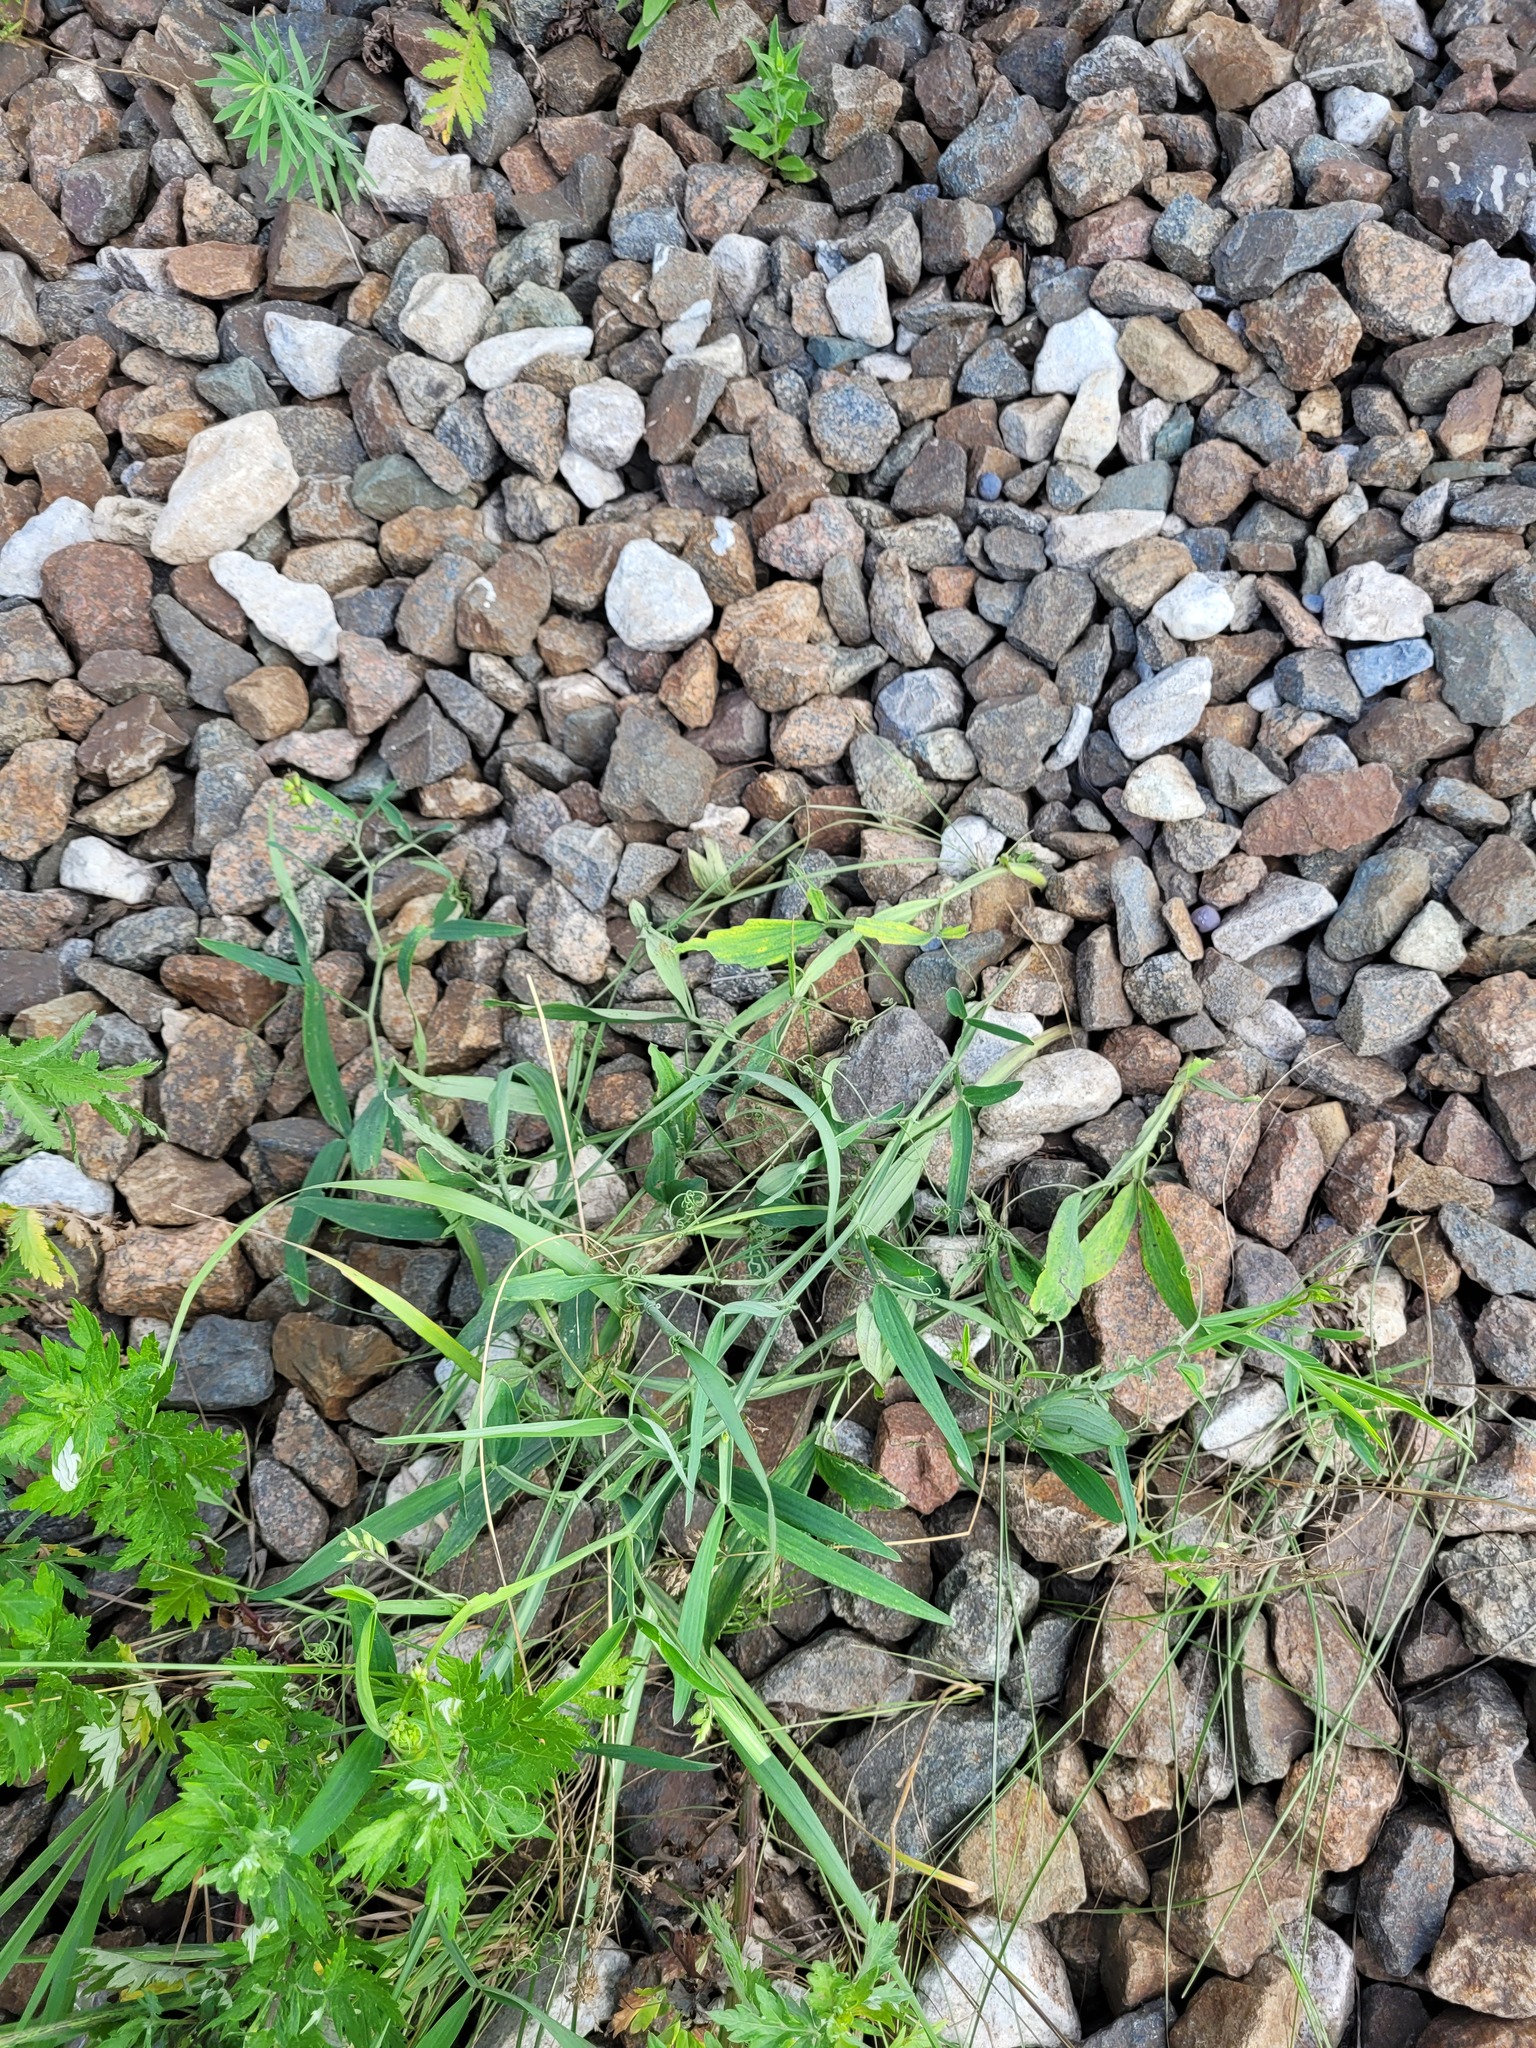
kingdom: Plantae
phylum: Tracheophyta
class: Magnoliopsida
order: Fabales
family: Fabaceae
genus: Lathyrus
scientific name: Lathyrus sylvestris
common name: Flat pea
